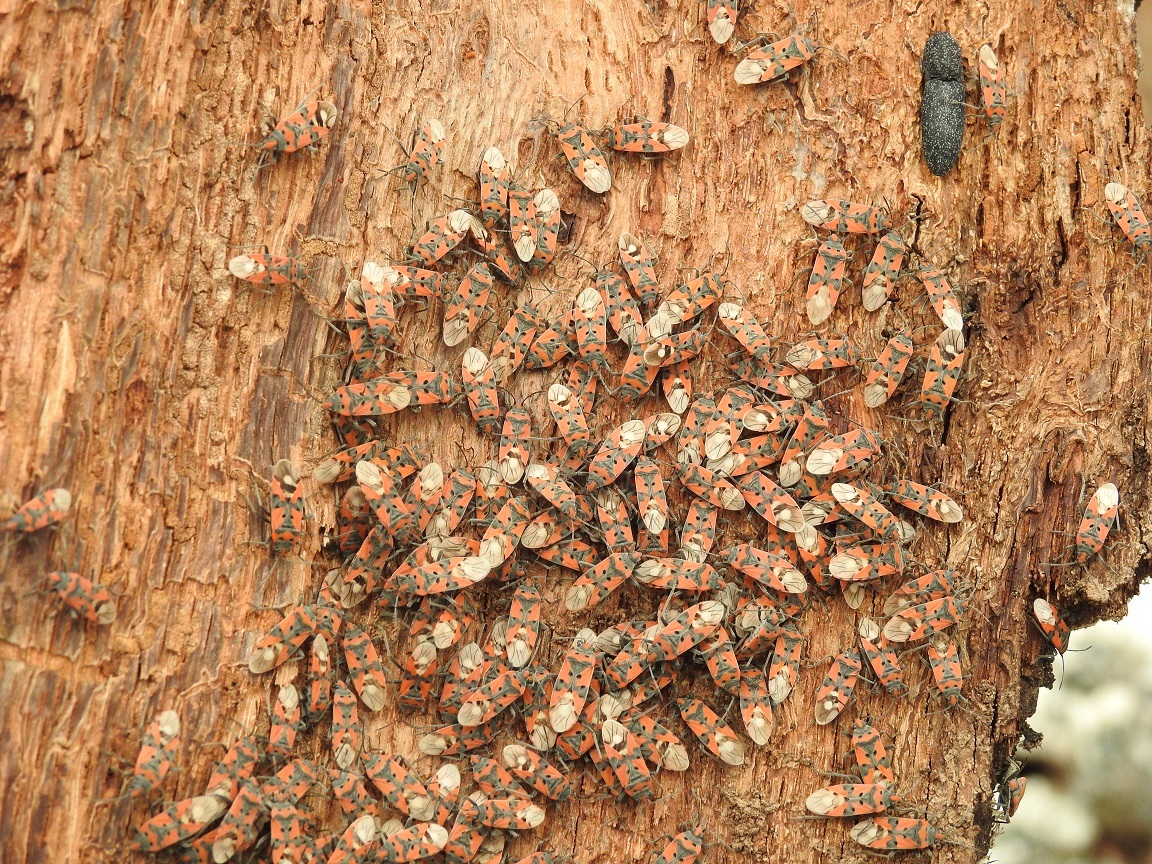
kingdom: Animalia
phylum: Arthropoda
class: Insecta
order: Hemiptera
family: Lygaeidae
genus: Lygaeus
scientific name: Lygaeus equestris
